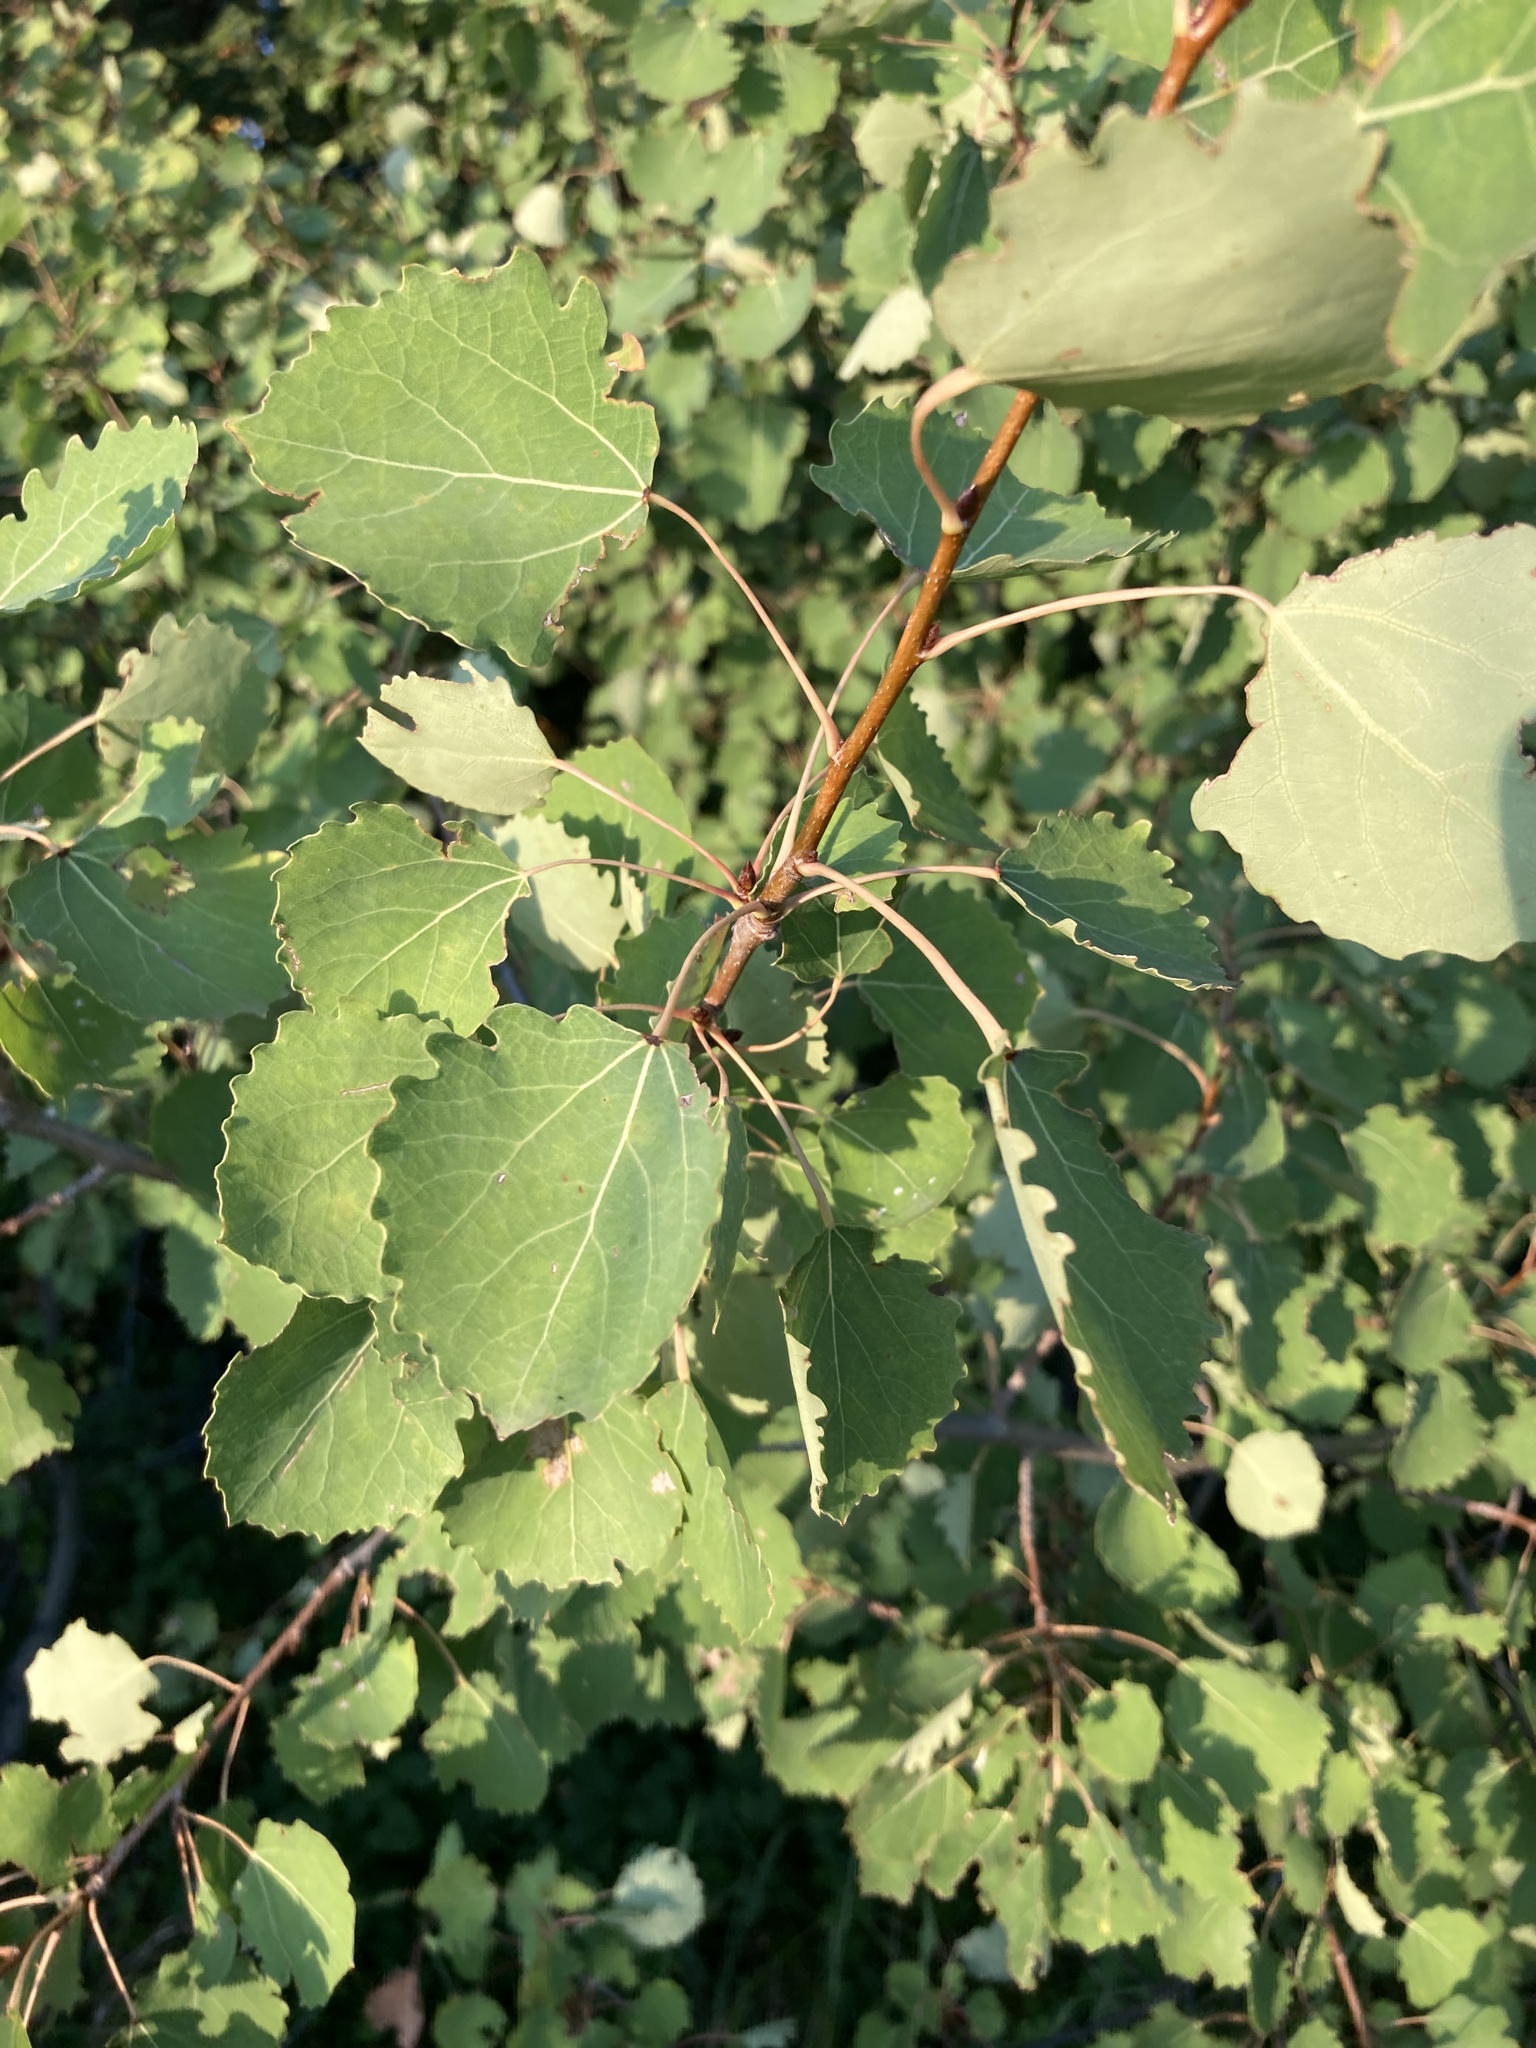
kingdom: Plantae
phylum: Tracheophyta
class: Magnoliopsida
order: Malpighiales
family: Salicaceae
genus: Populus
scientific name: Populus tremula
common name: European aspen
